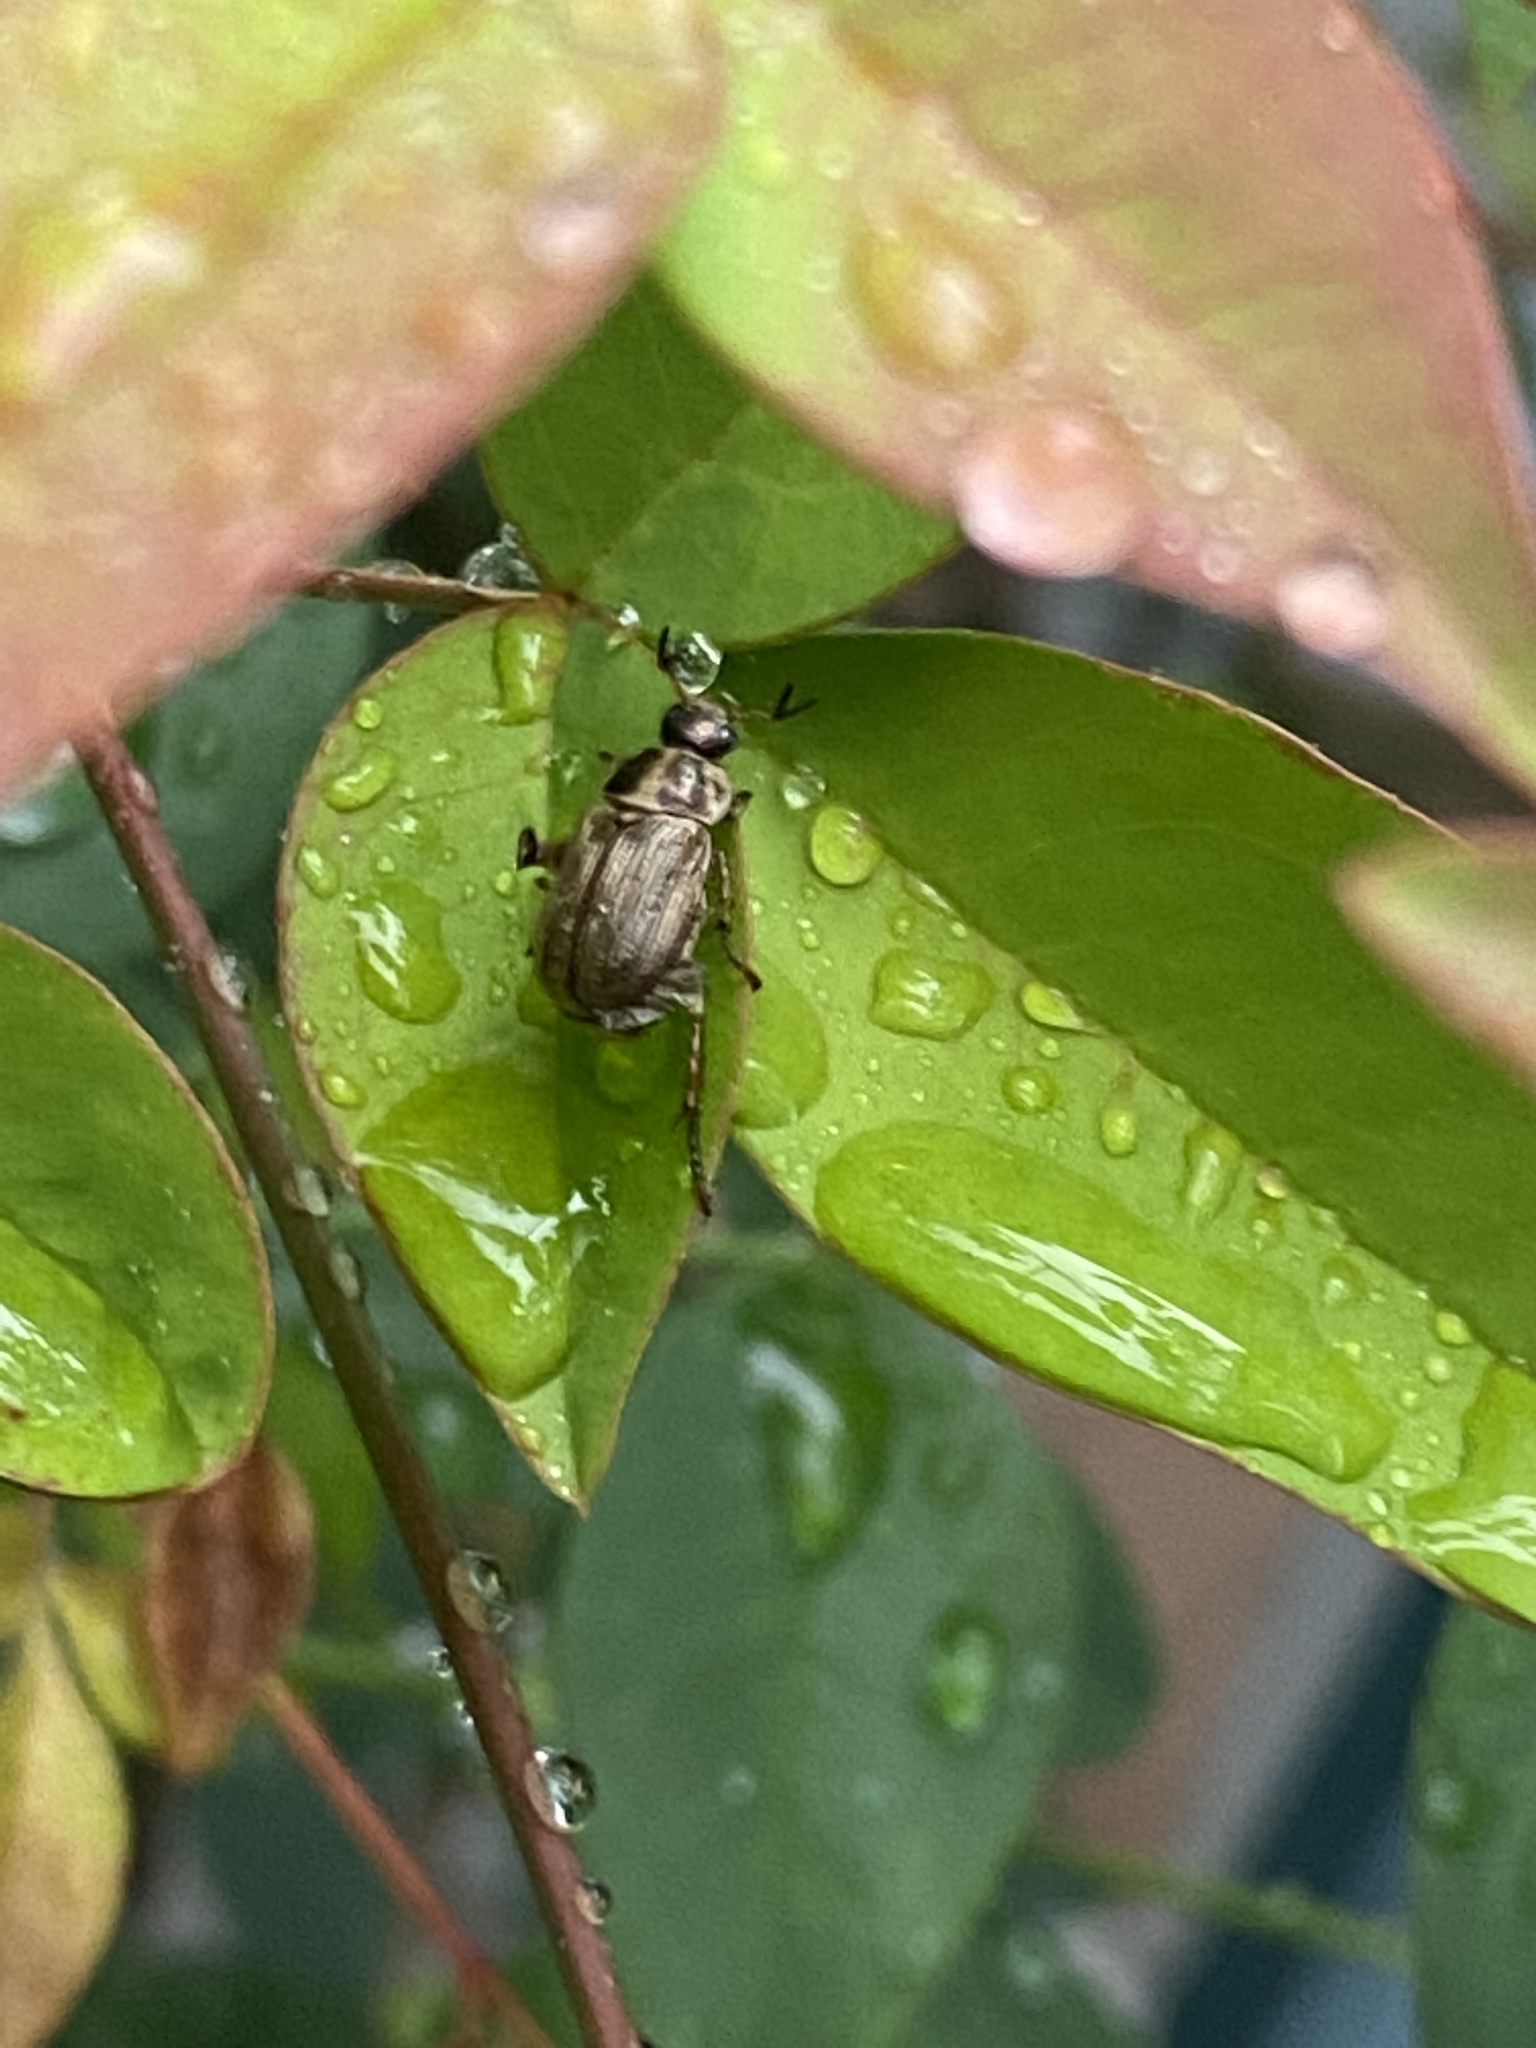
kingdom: Animalia
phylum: Arthropoda
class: Insecta
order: Coleoptera
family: Scarabaeidae
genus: Exomala
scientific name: Exomala orientalis
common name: Oriental beetle
